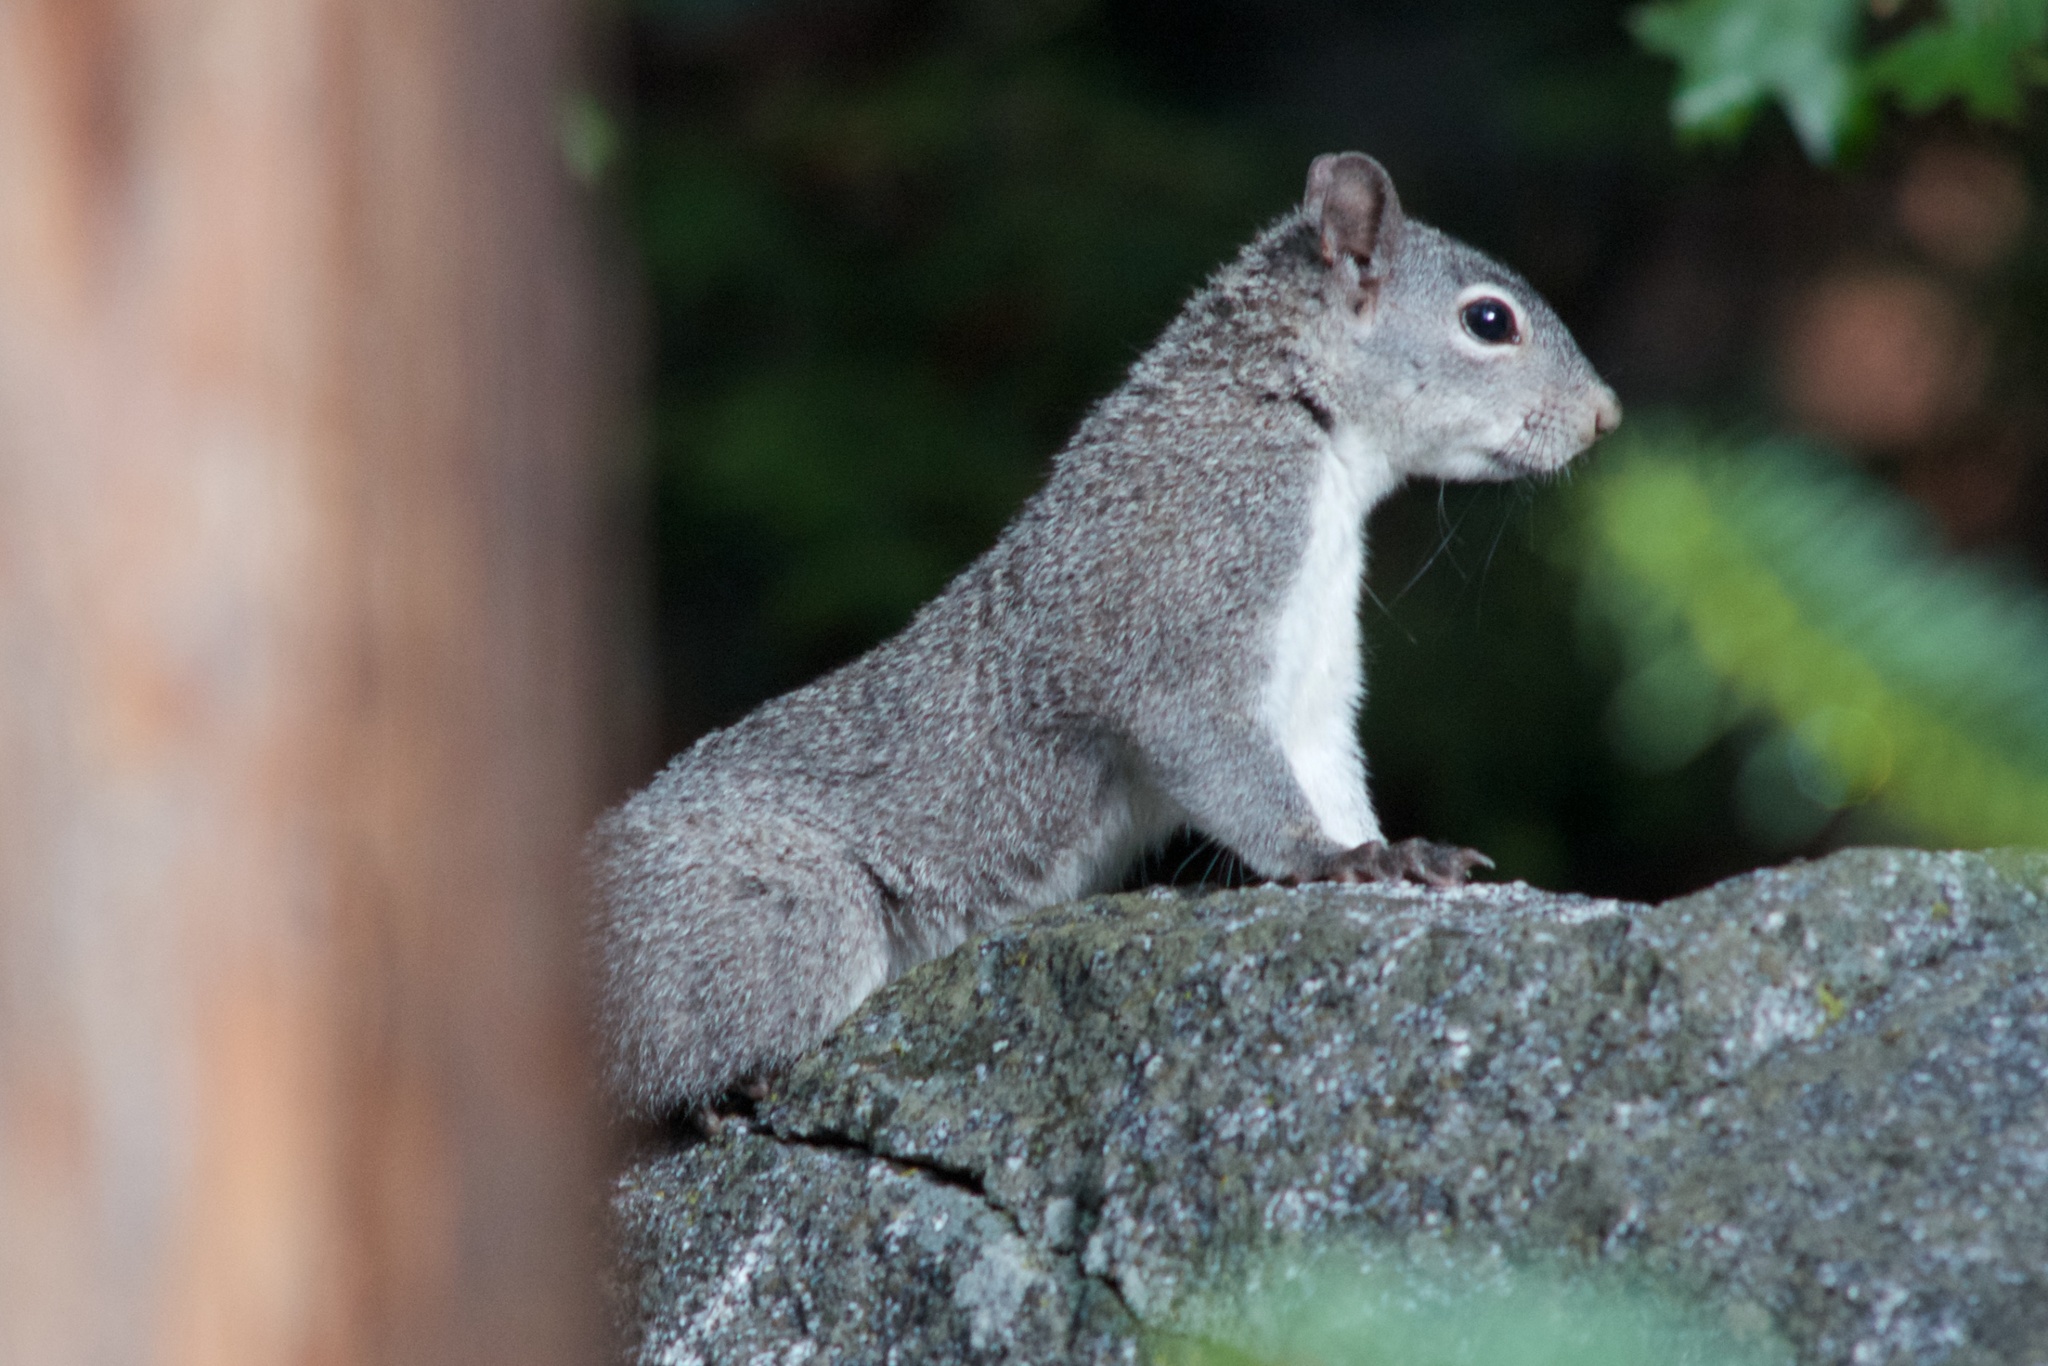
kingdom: Animalia
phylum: Chordata
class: Mammalia
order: Rodentia
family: Sciuridae
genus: Sciurus
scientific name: Sciurus griseus
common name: Western gray squirrel
